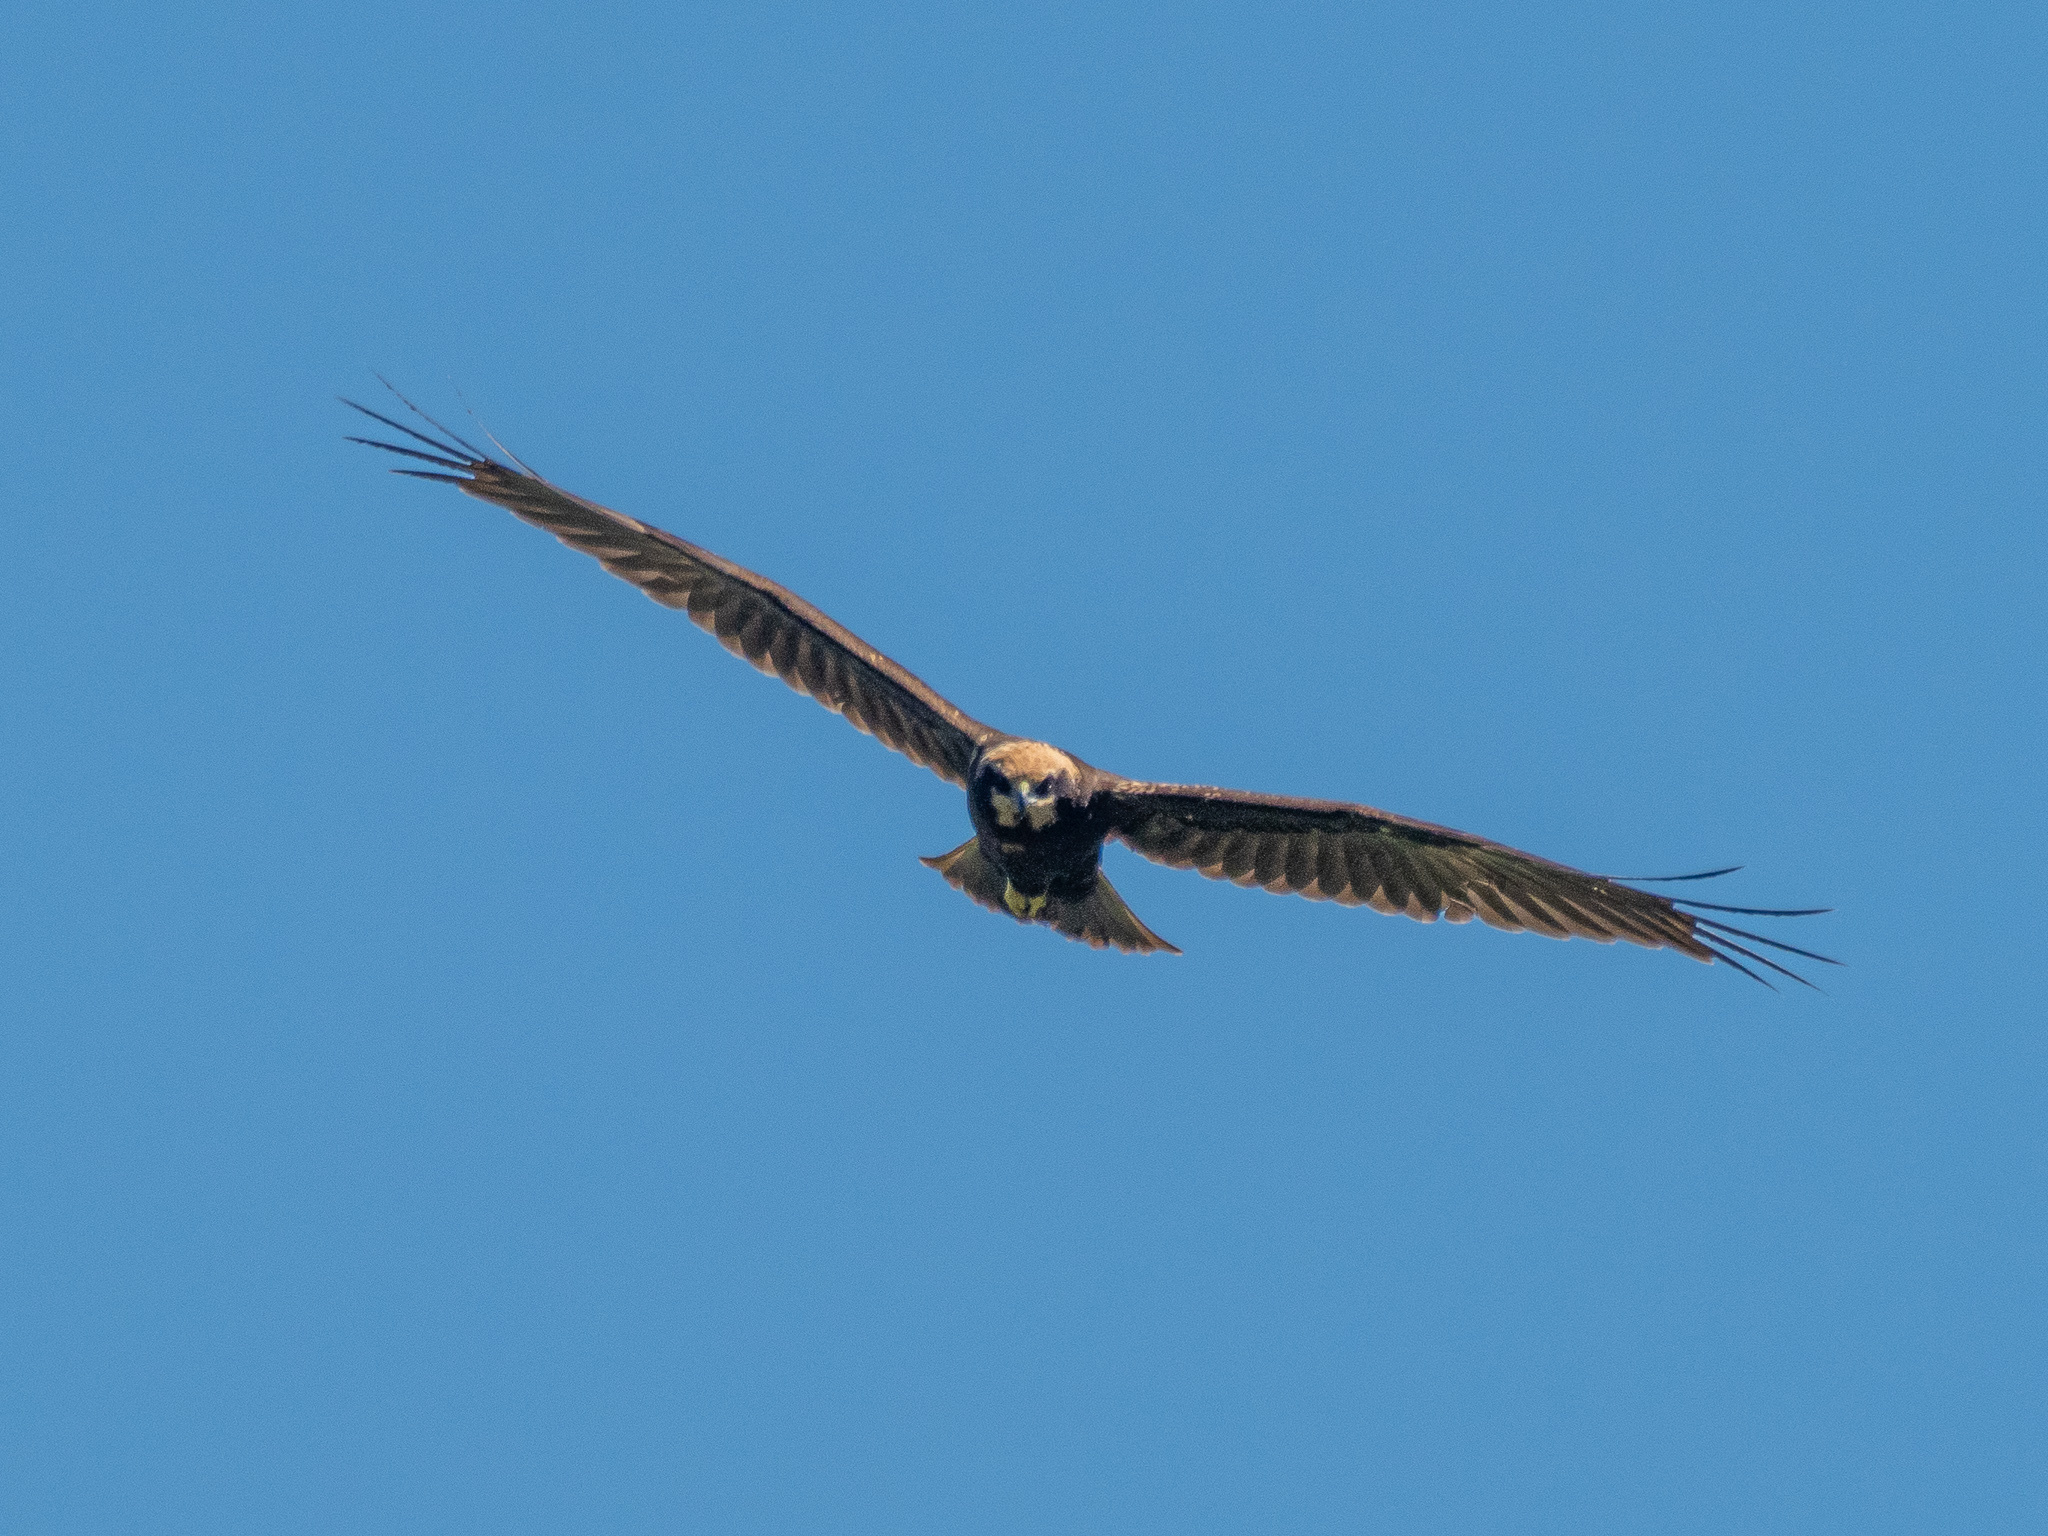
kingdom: Animalia
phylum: Chordata
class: Aves
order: Accipitriformes
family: Accipitridae
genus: Circus
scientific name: Circus aeruginosus
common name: Western marsh harrier
